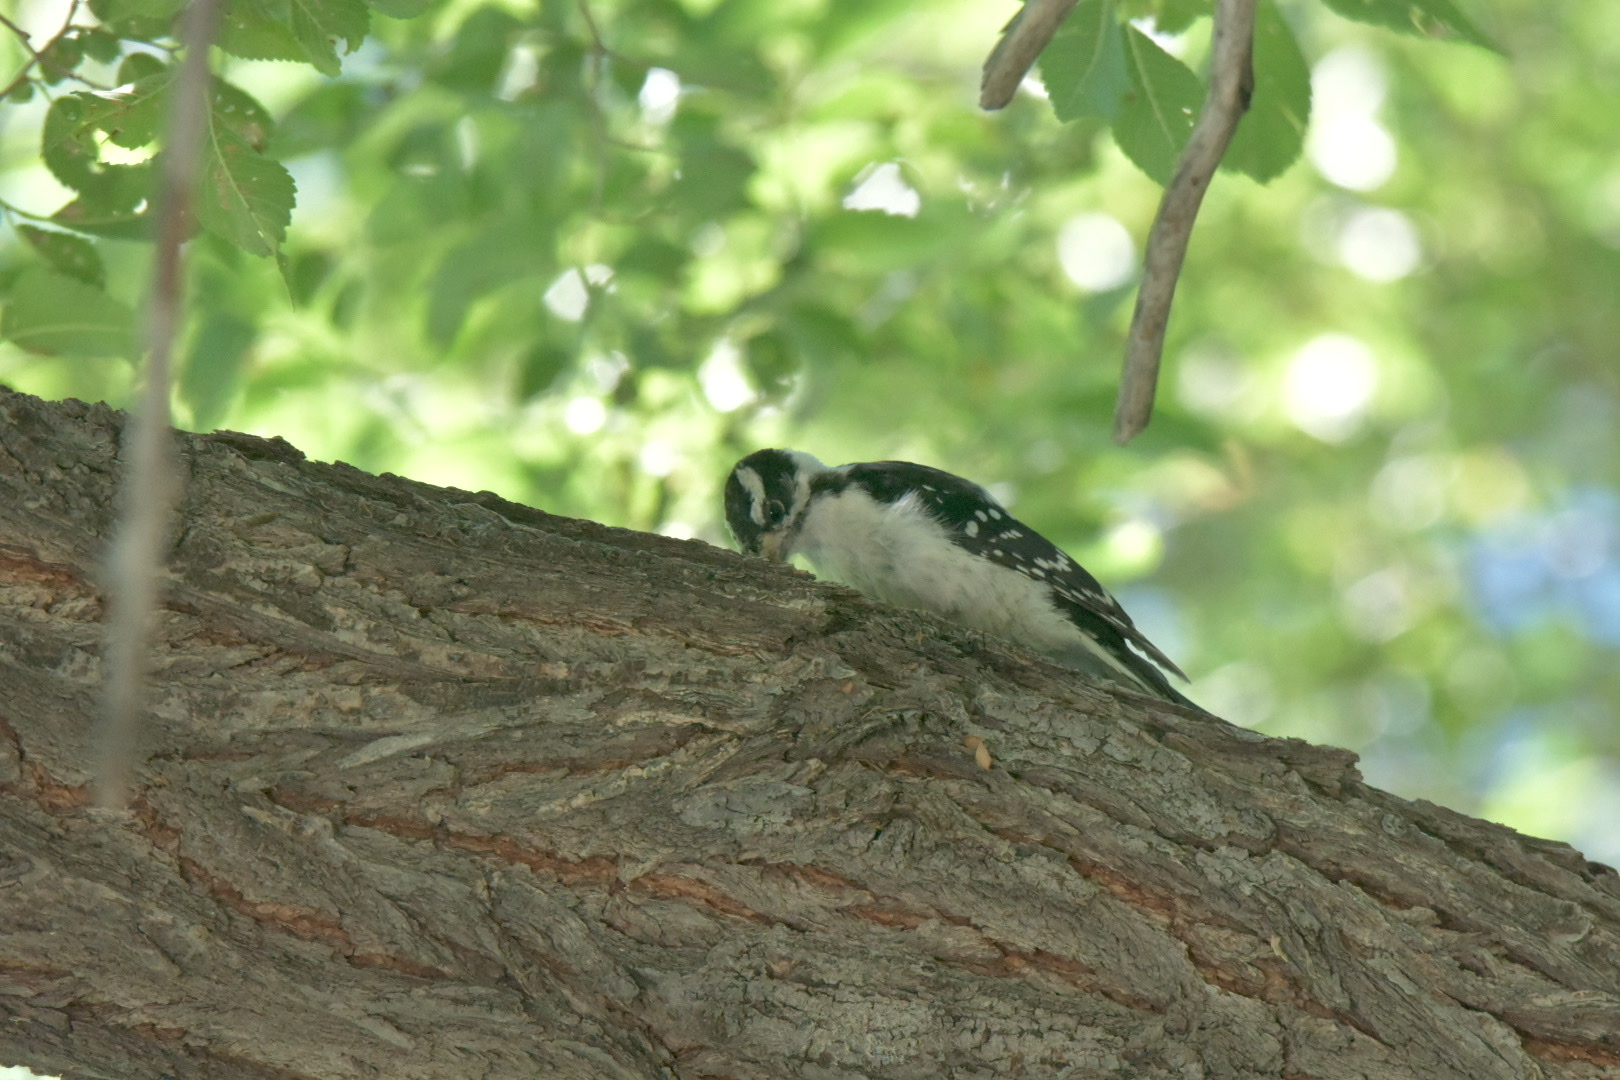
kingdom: Animalia
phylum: Chordata
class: Aves
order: Piciformes
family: Picidae
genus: Dryobates
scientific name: Dryobates pubescens
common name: Downy woodpecker
